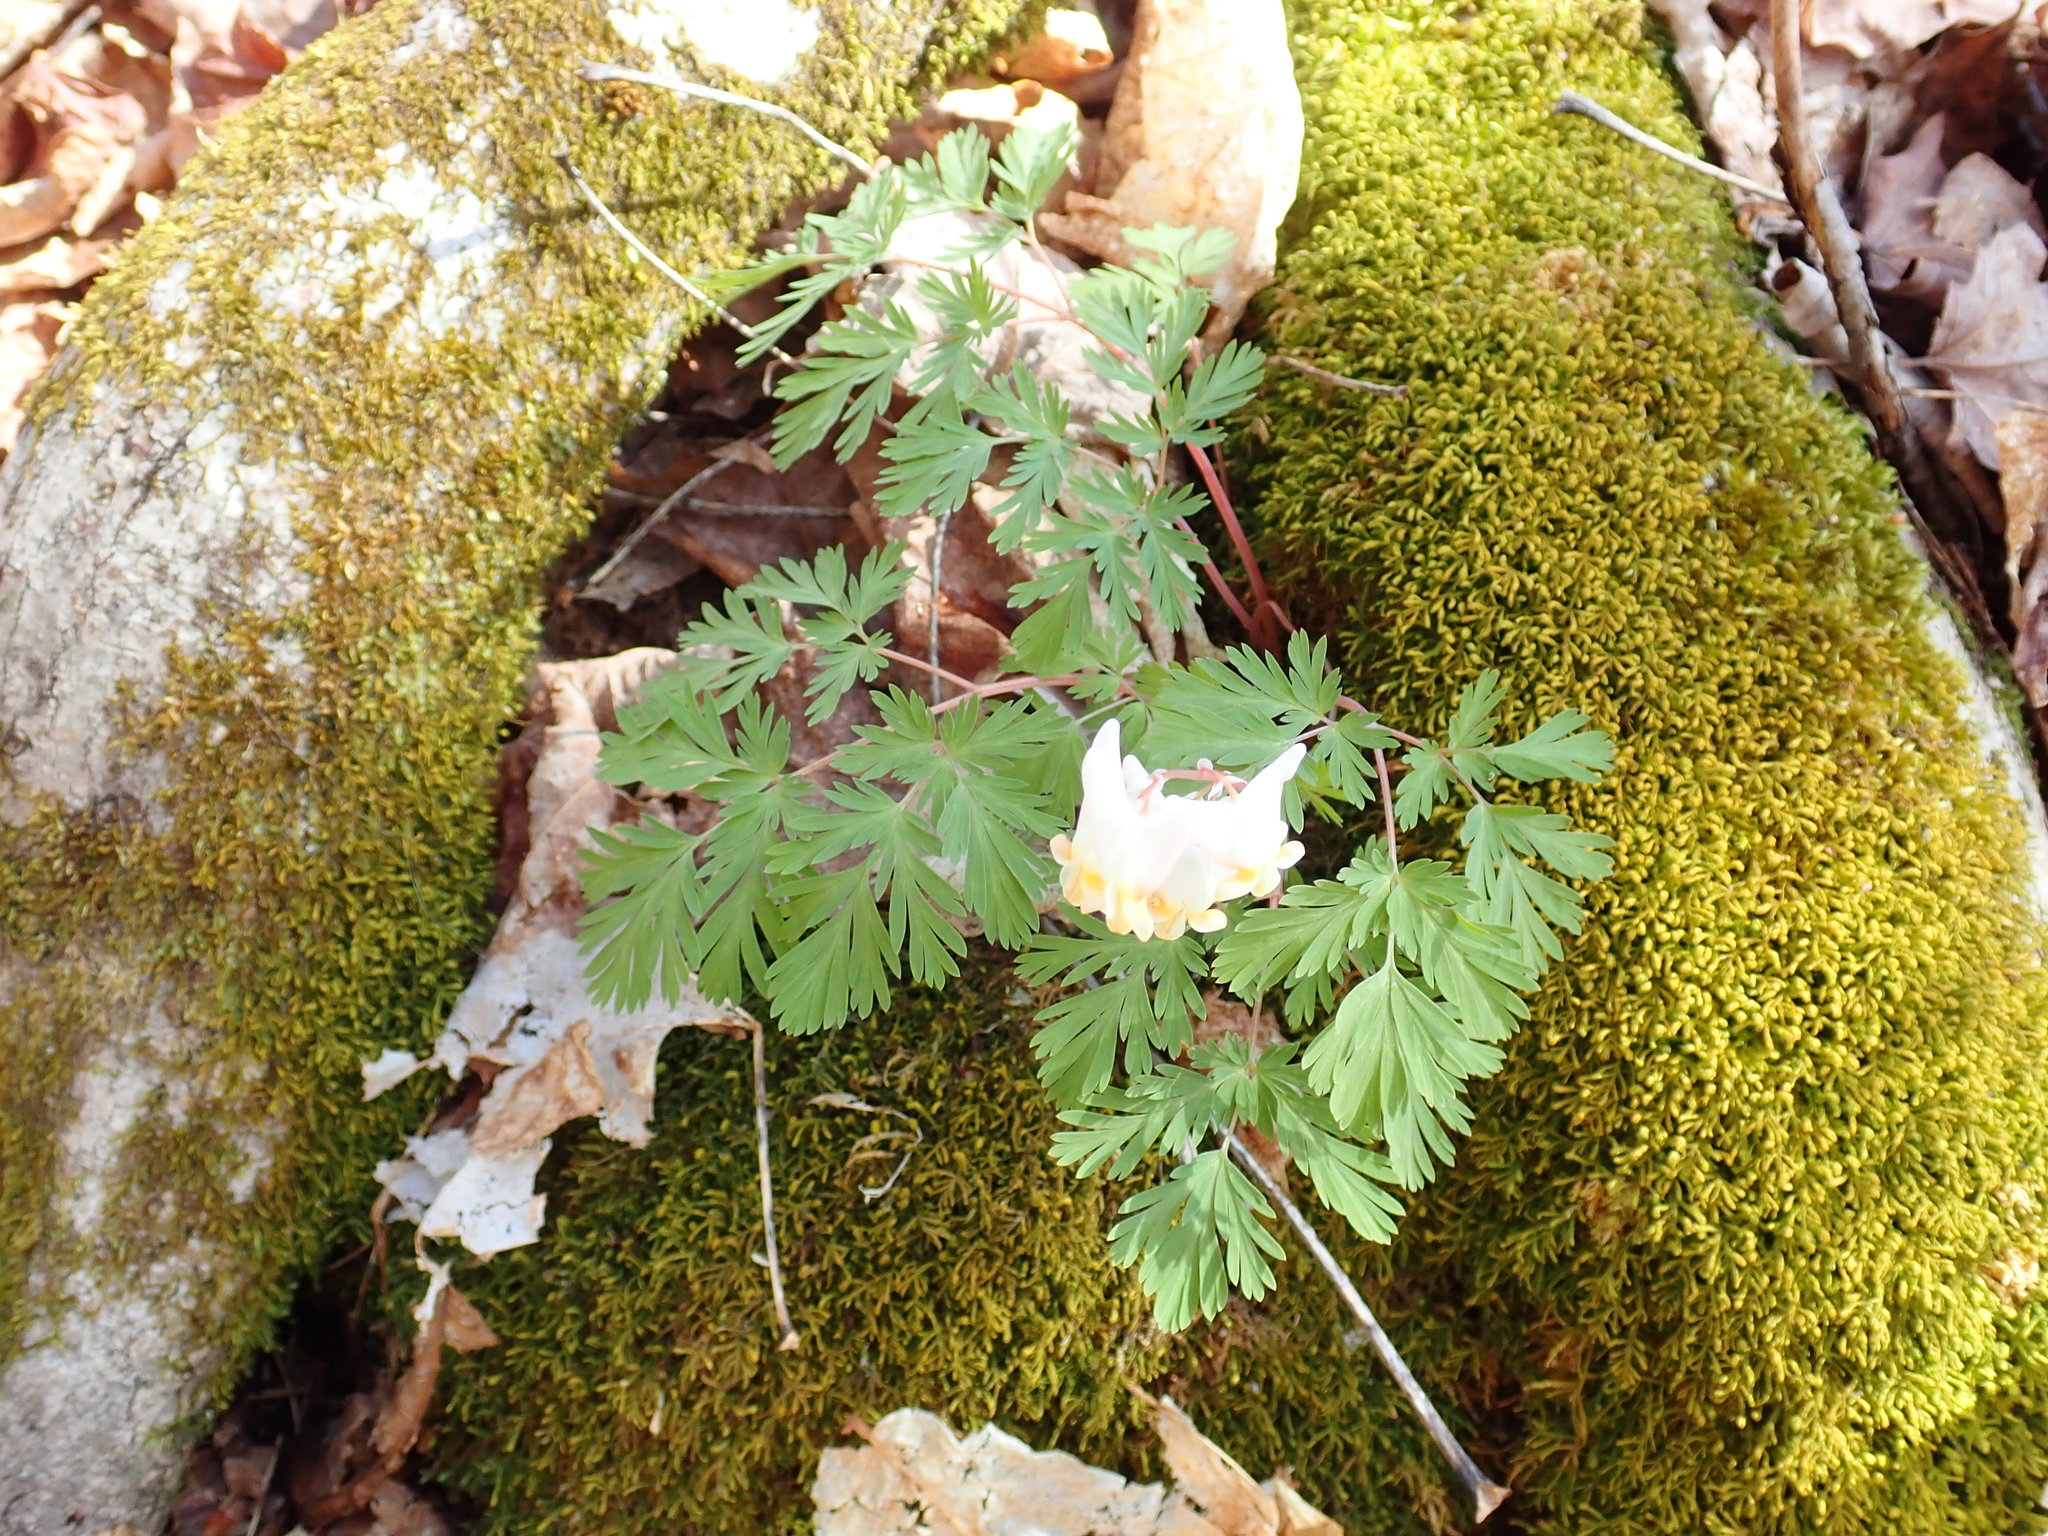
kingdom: Plantae
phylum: Tracheophyta
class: Magnoliopsida
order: Ranunculales
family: Papaveraceae
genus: Dicentra
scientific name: Dicentra cucullaria
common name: Dutchman's breeches
